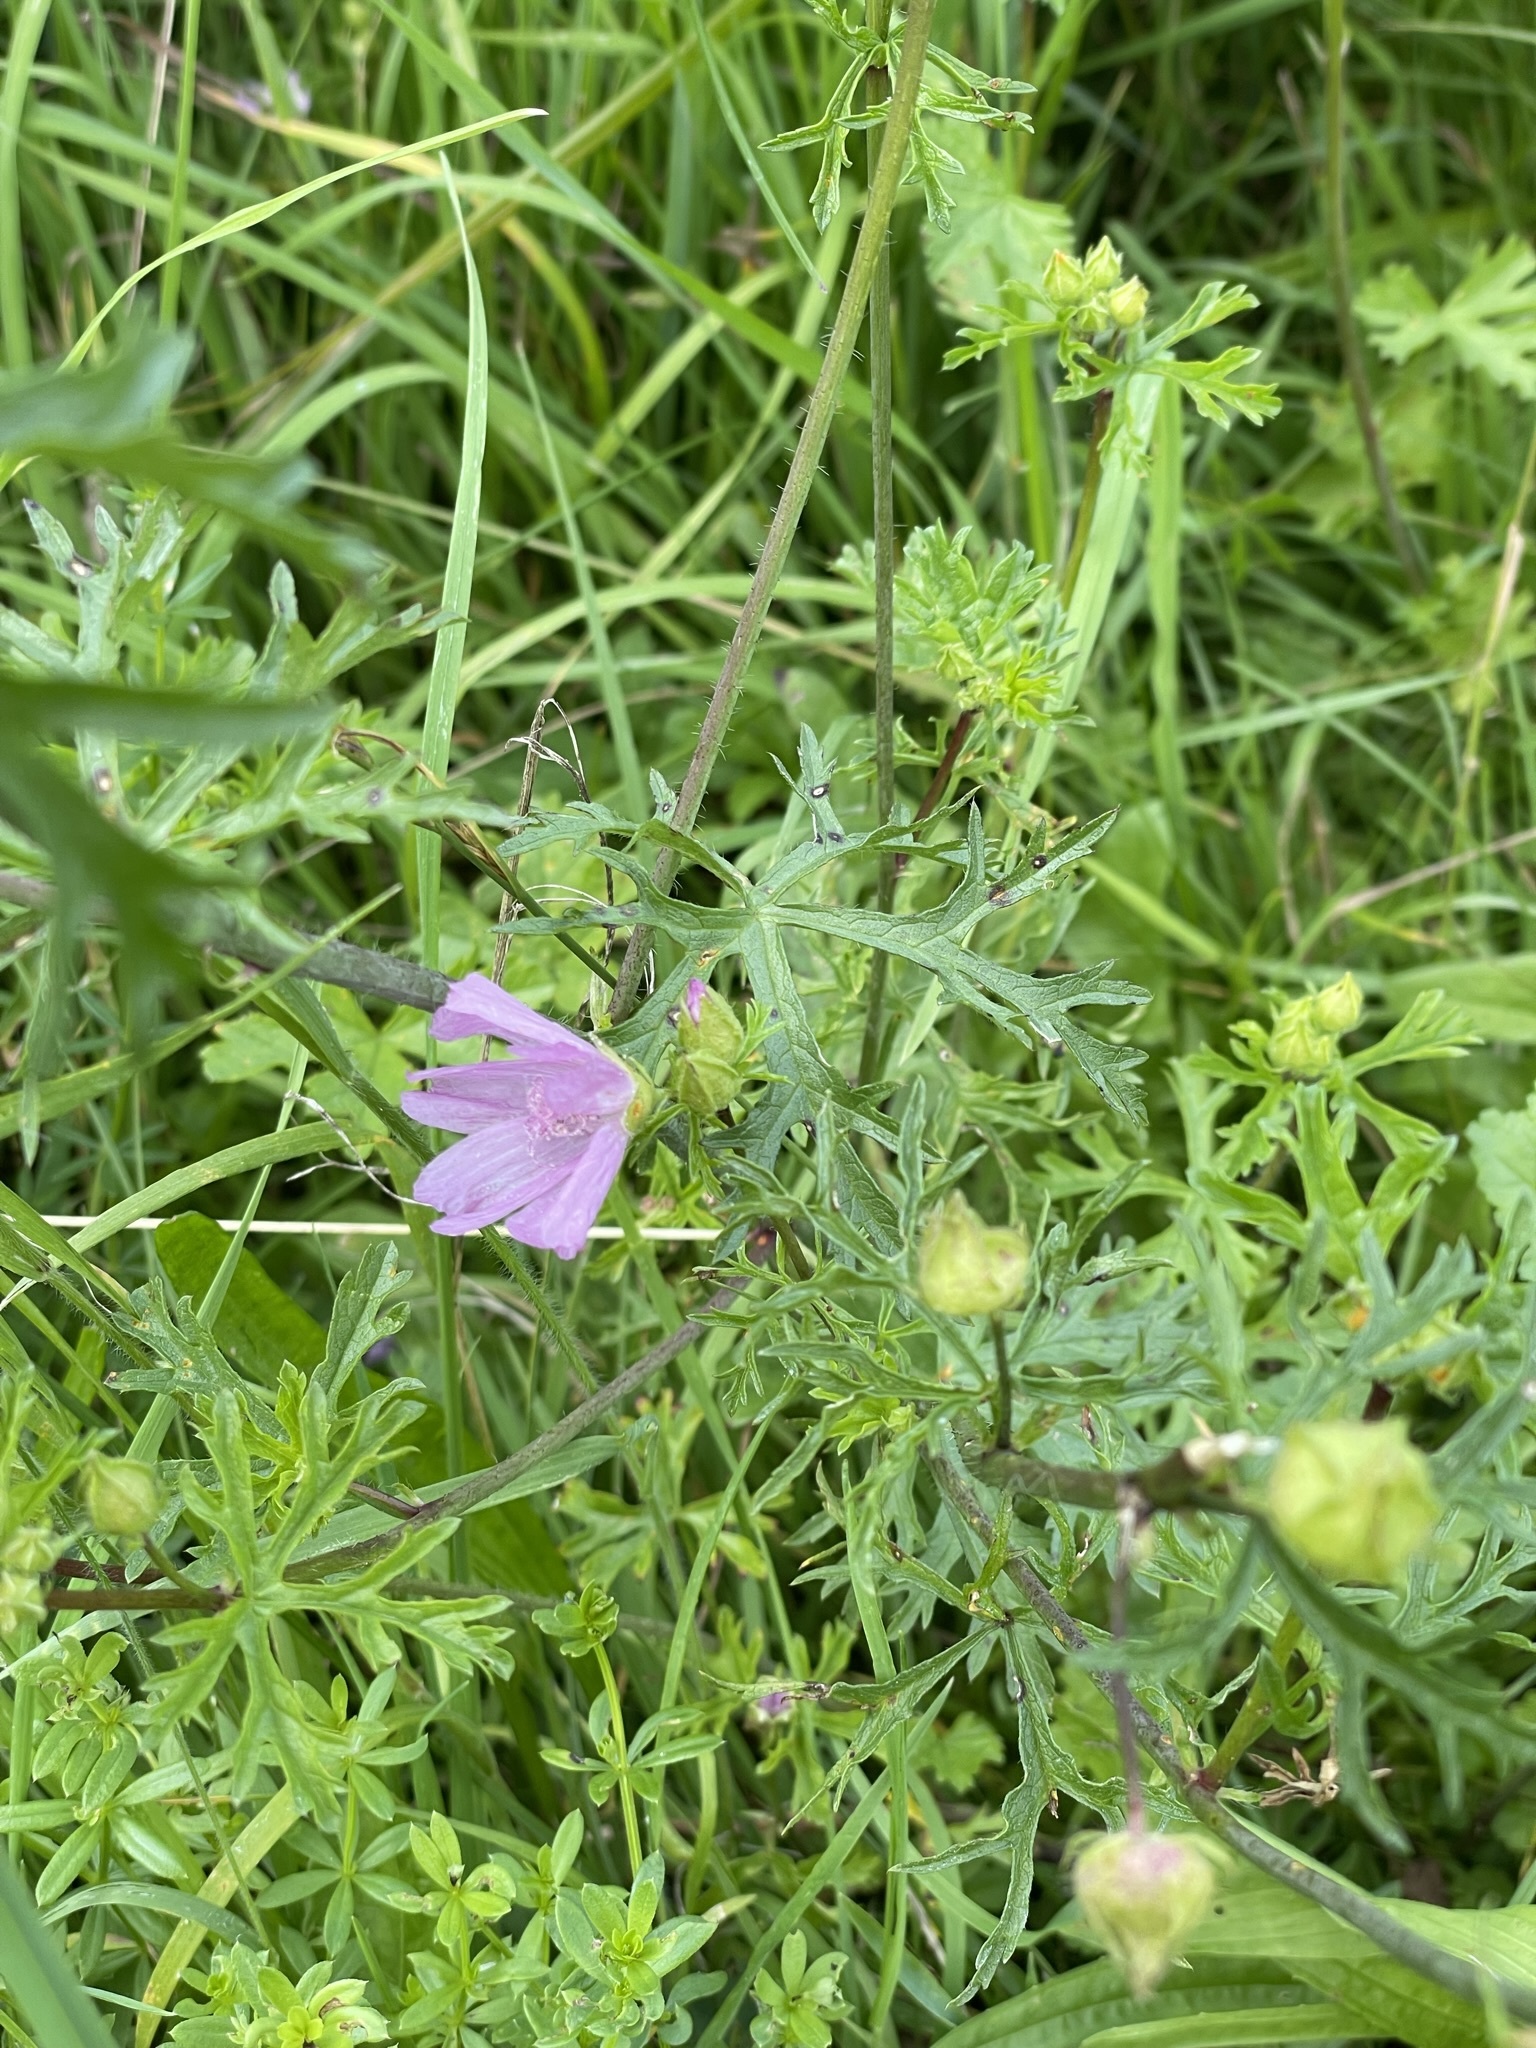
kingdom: Plantae
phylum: Tracheophyta
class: Magnoliopsida
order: Malvales
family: Malvaceae
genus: Malva
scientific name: Malva moschata
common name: Musk mallow
